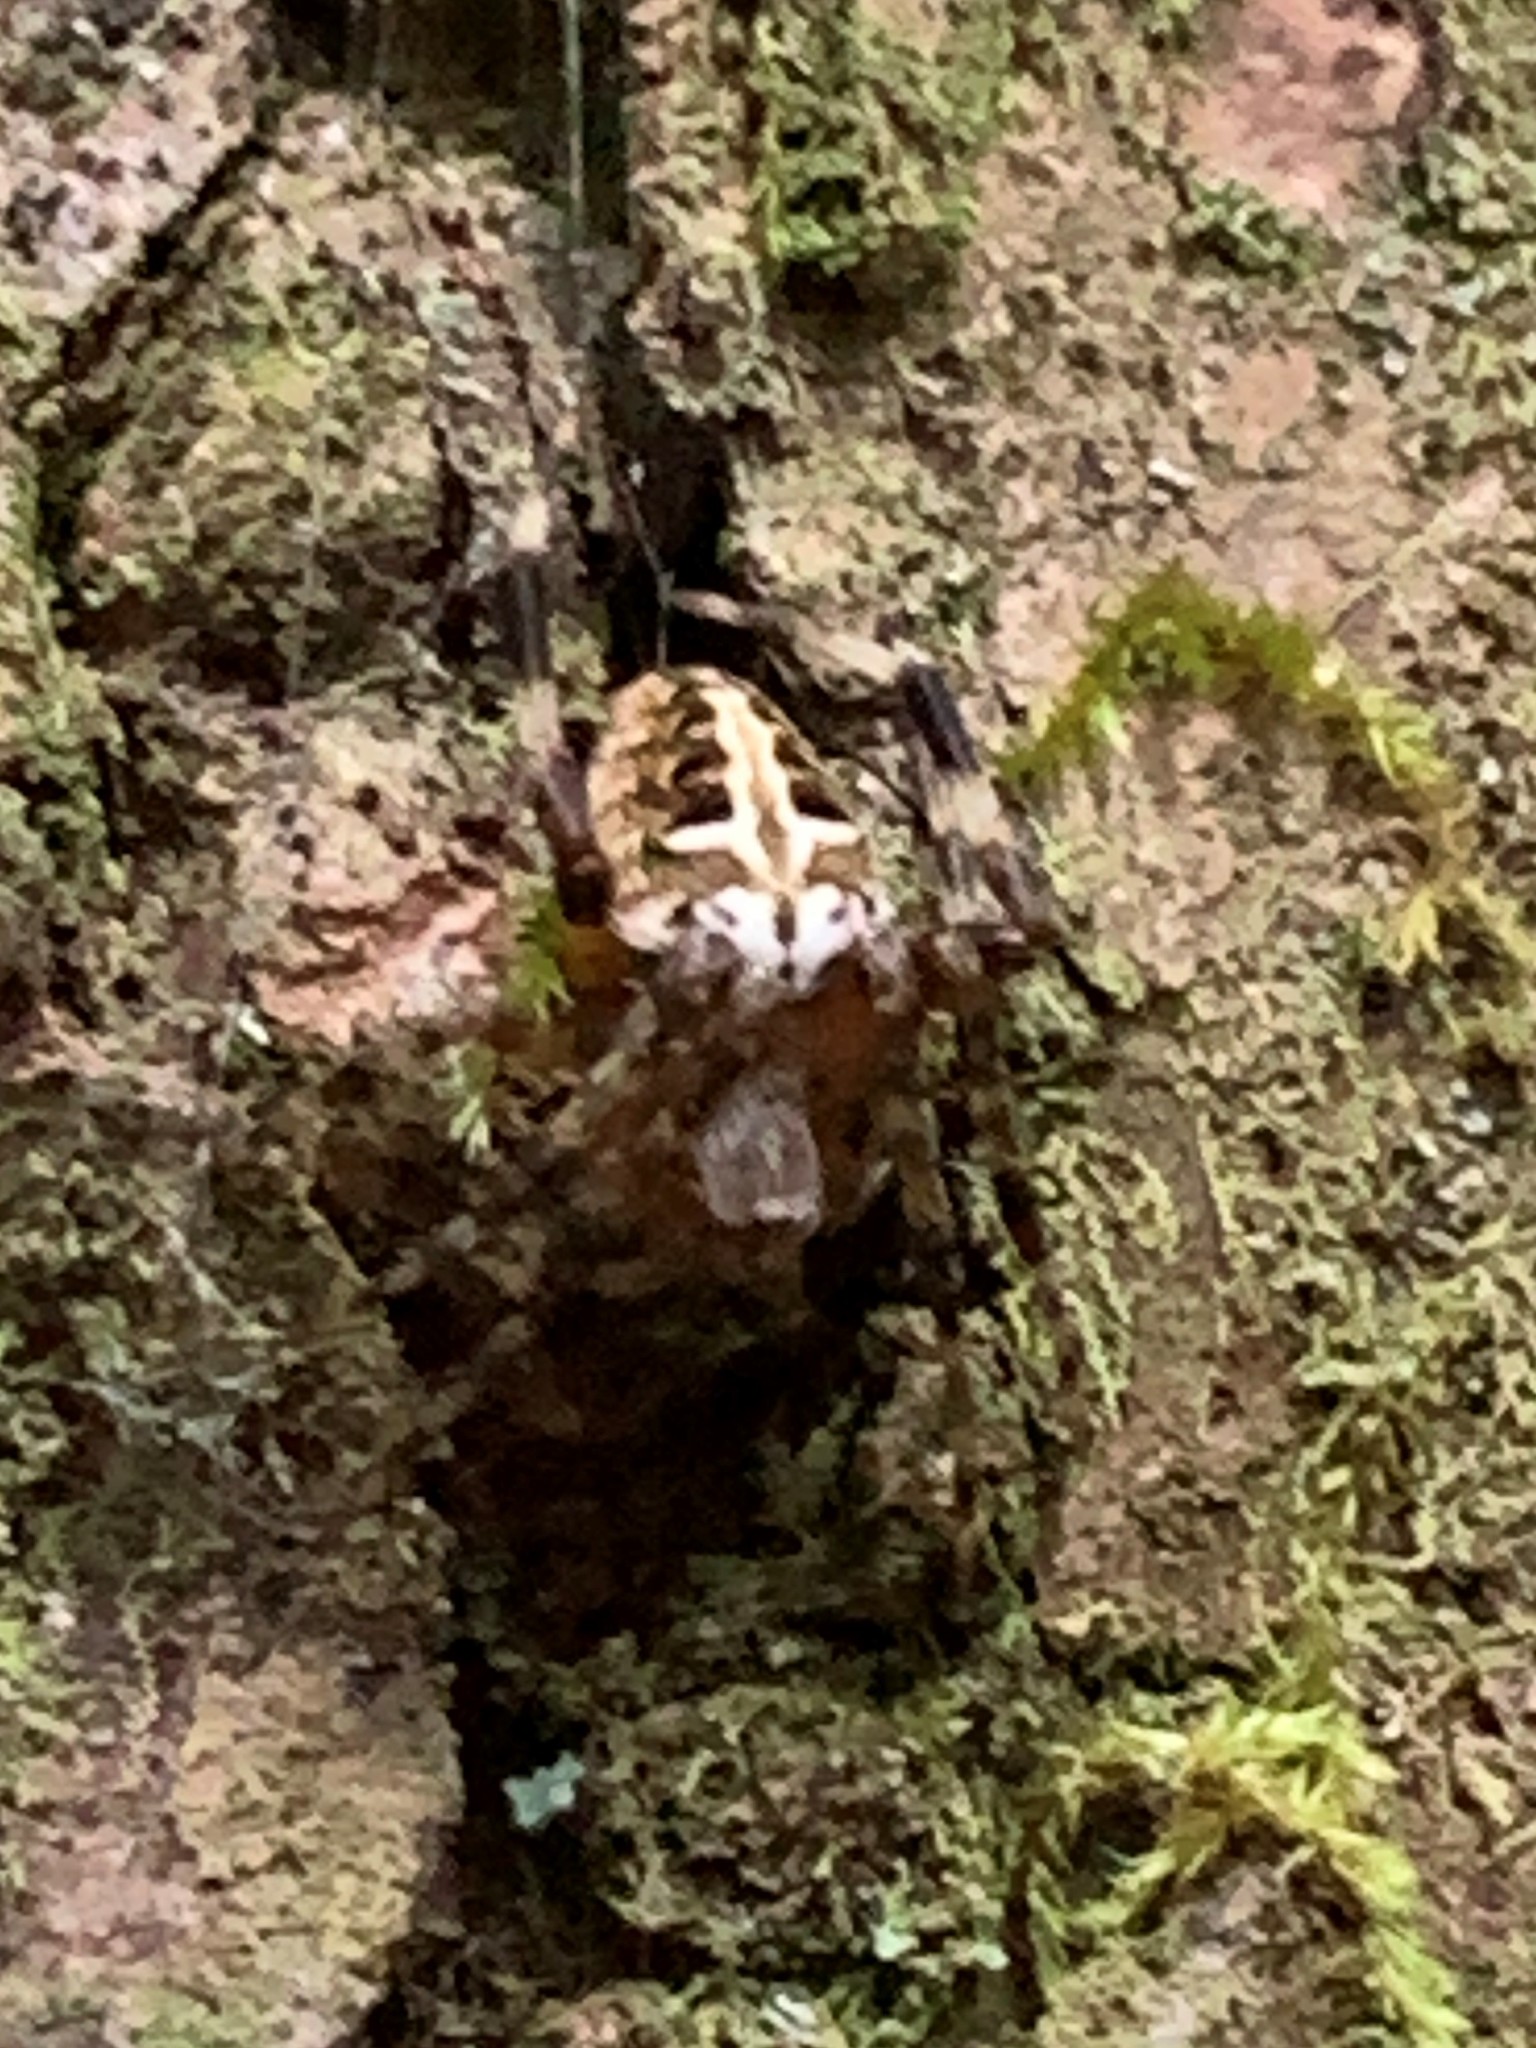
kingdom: Animalia
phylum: Arthropoda
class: Arachnida
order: Araneae
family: Araneidae
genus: Neoscona
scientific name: Neoscona domiciliorum
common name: Red-femured spotted orbweaver
